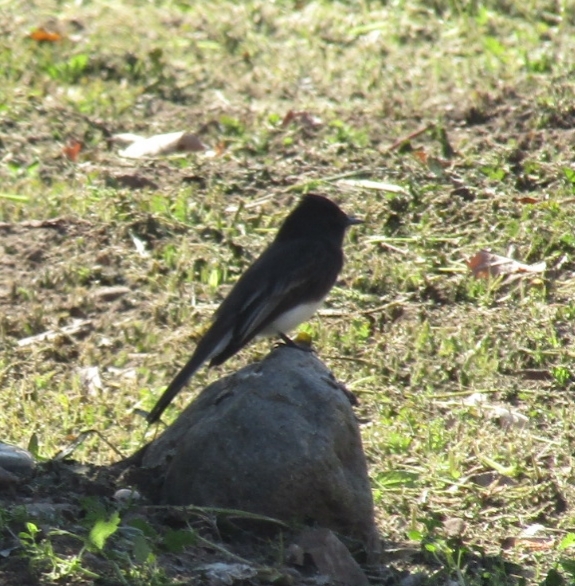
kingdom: Animalia
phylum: Chordata
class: Aves
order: Passeriformes
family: Tyrannidae
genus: Sayornis
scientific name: Sayornis nigricans
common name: Black phoebe
